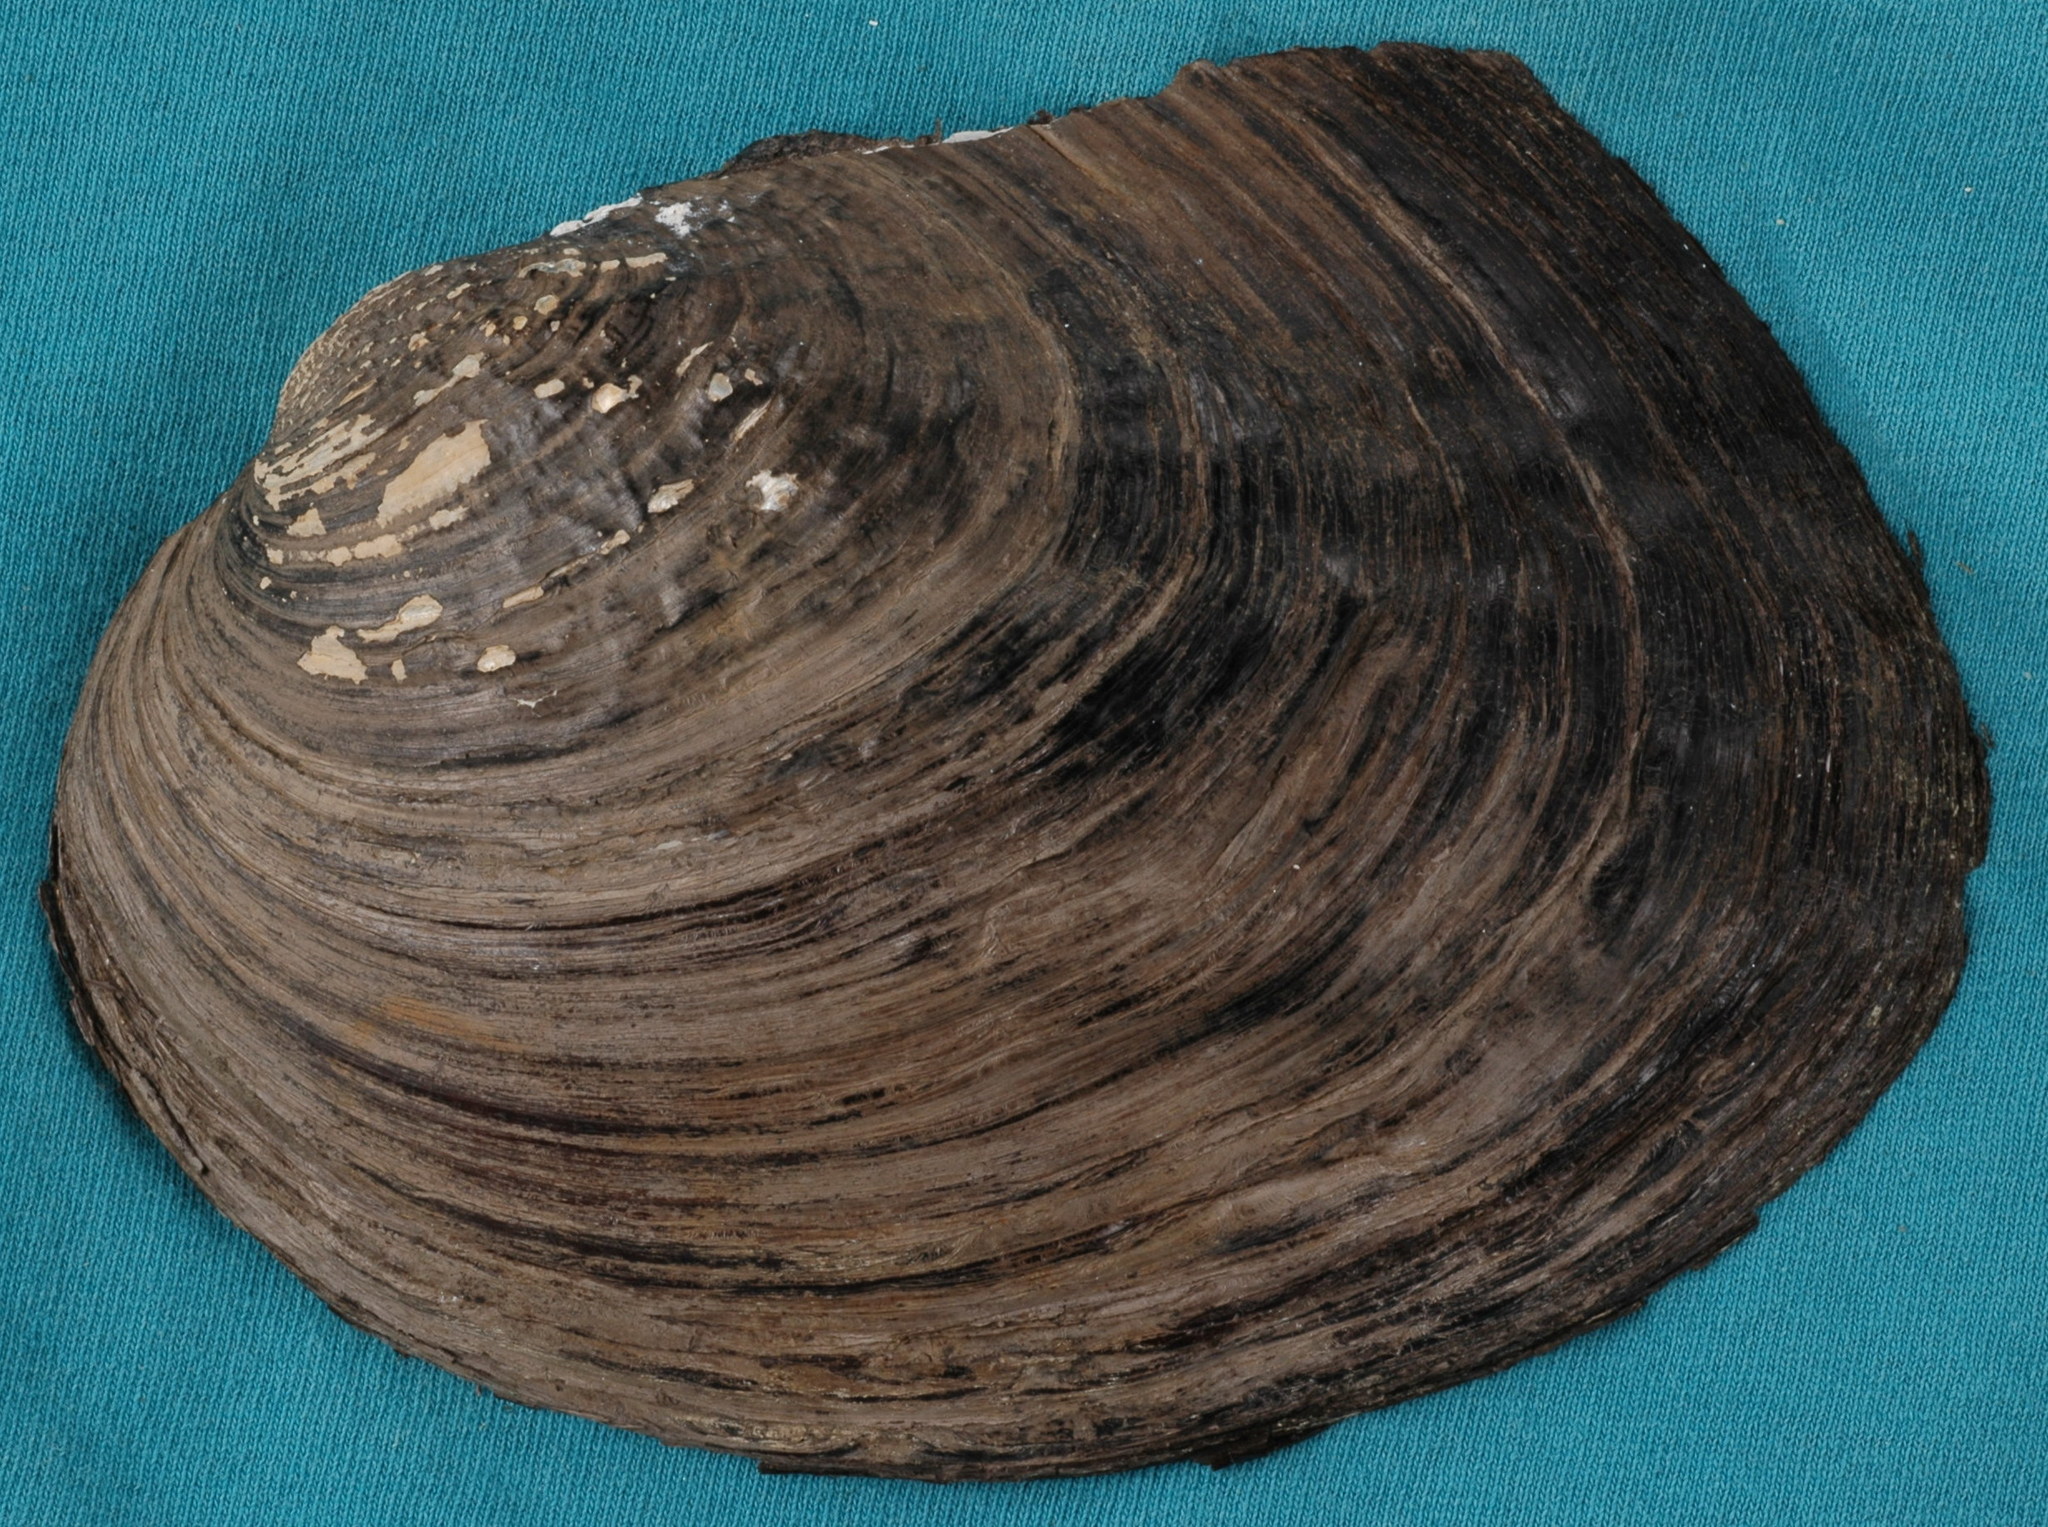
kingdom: Animalia
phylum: Mollusca
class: Bivalvia
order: Unionida
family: Unionidae
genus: Megalonaias
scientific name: Megalonaias nervosa
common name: Washboard
